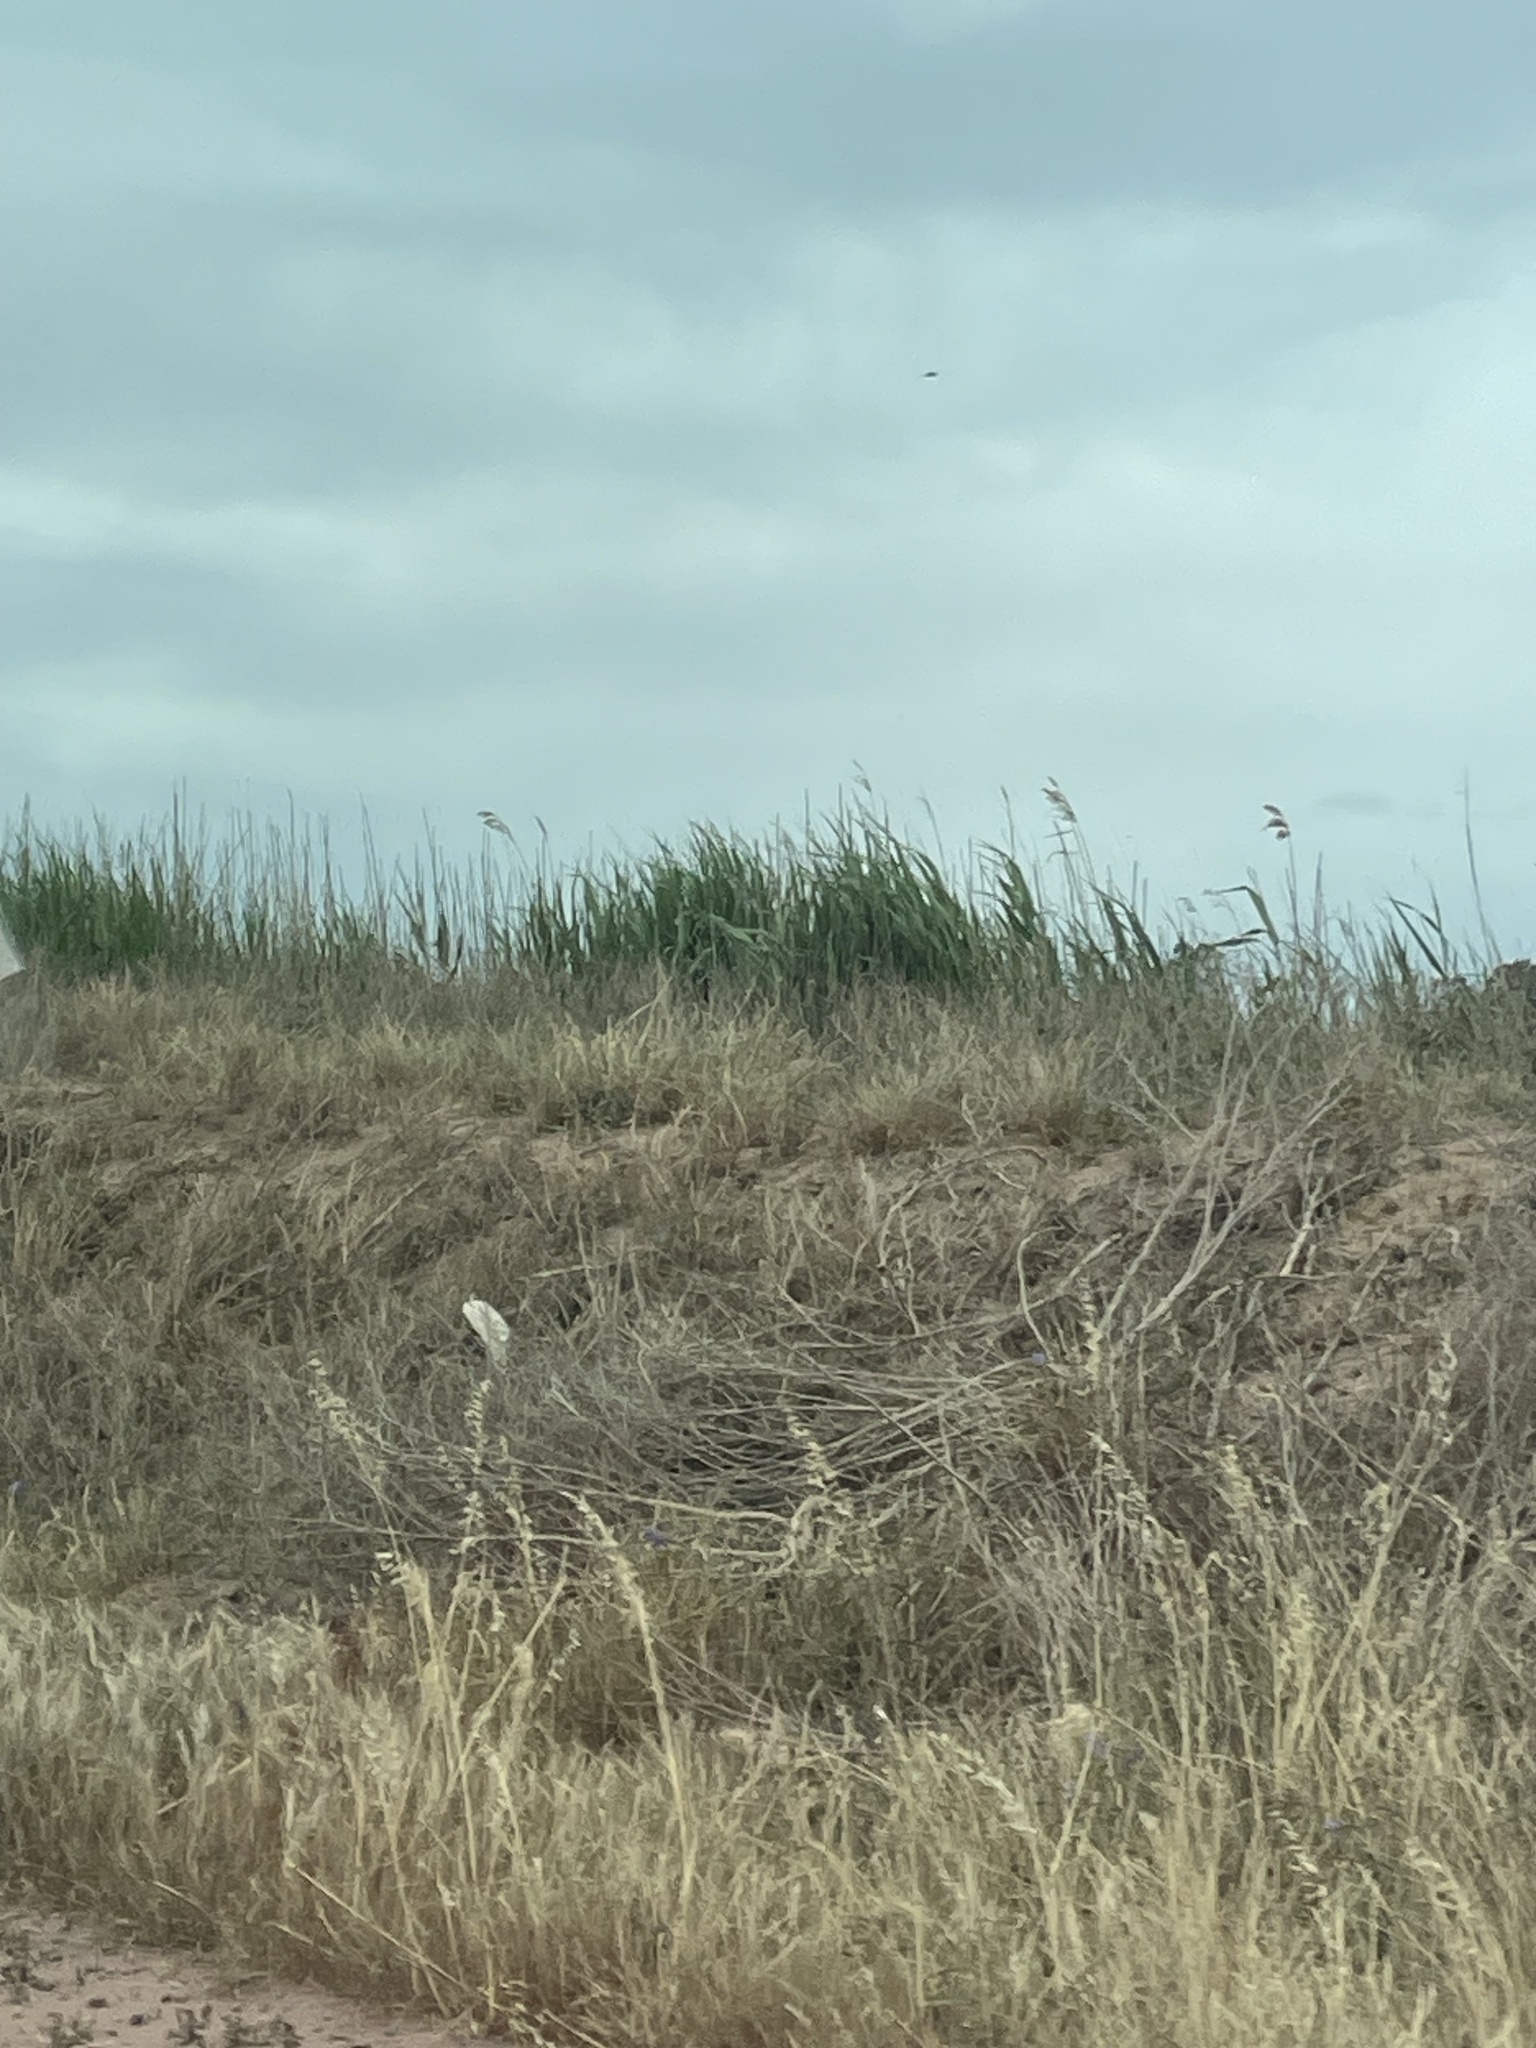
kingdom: Plantae
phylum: Tracheophyta
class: Liliopsida
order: Poales
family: Poaceae
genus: Phragmites
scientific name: Phragmites australis
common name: Common reed
